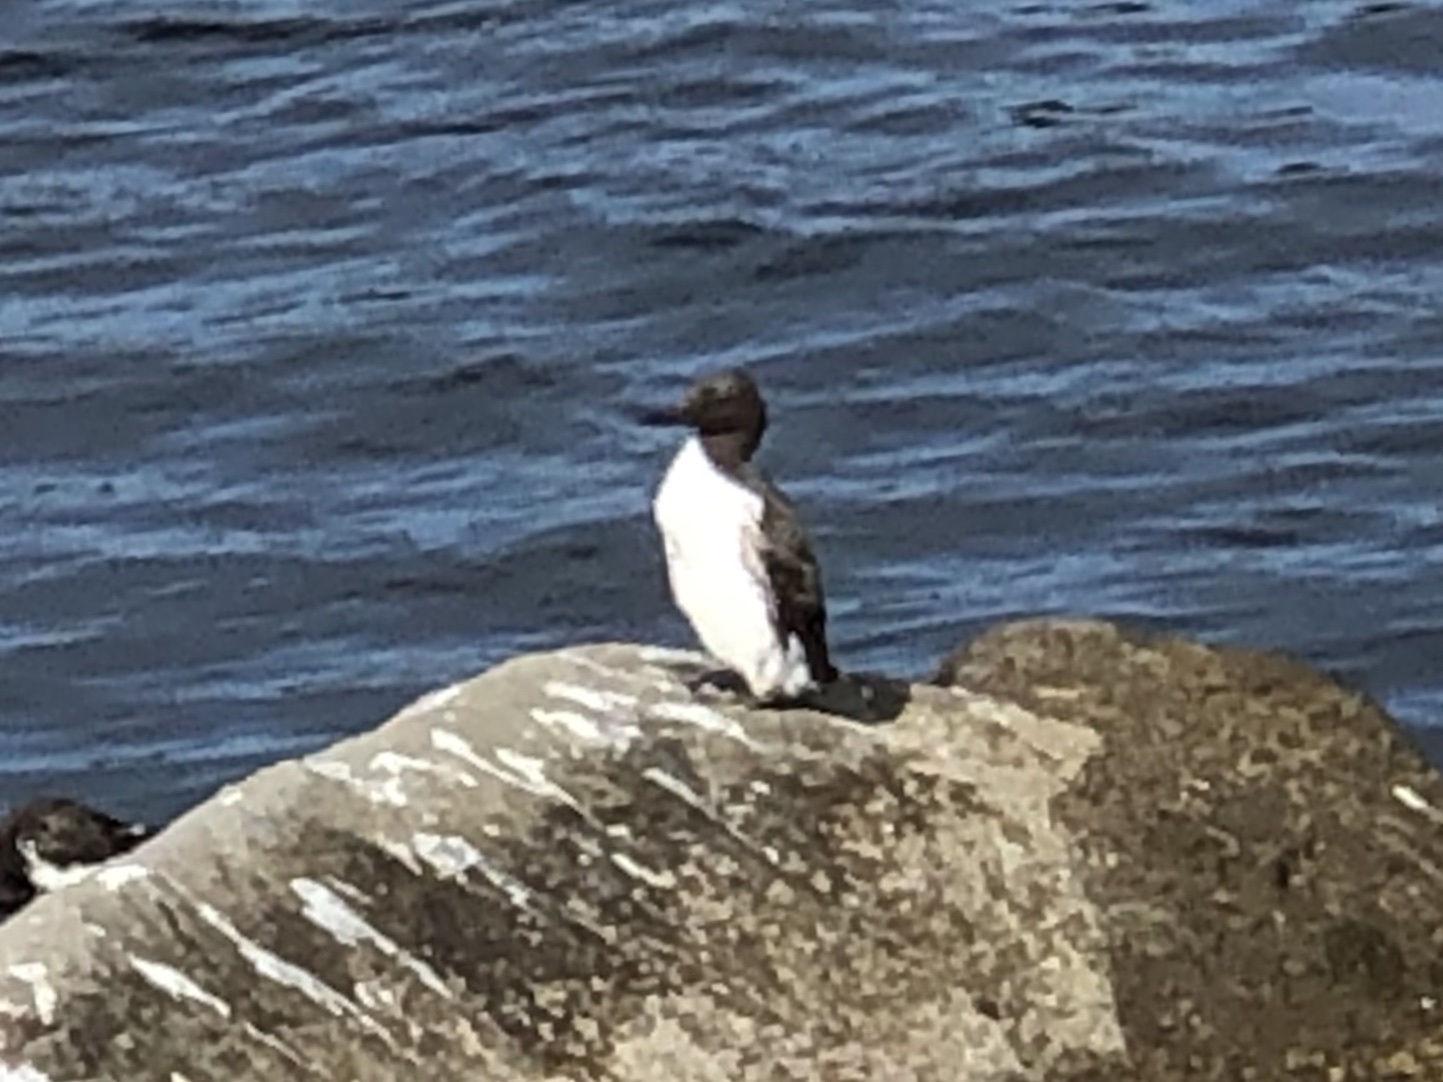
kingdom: Animalia
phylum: Chordata
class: Aves
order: Charadriiformes
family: Alcidae
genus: Uria
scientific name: Uria aalge
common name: Common murre
